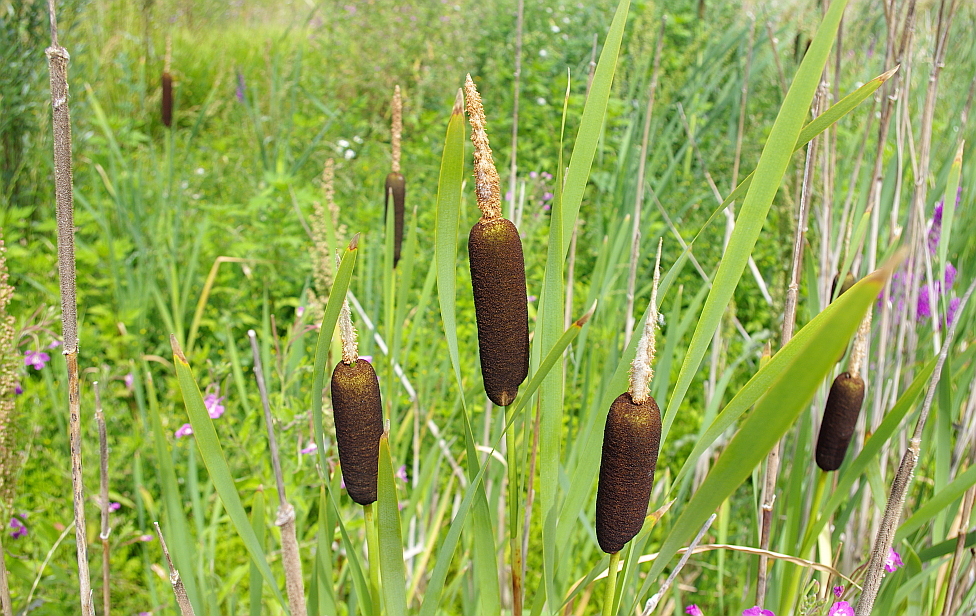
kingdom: Plantae
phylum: Tracheophyta
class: Liliopsida
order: Poales
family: Typhaceae
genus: Typha
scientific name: Typha latifolia
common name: Broadleaf cattail
